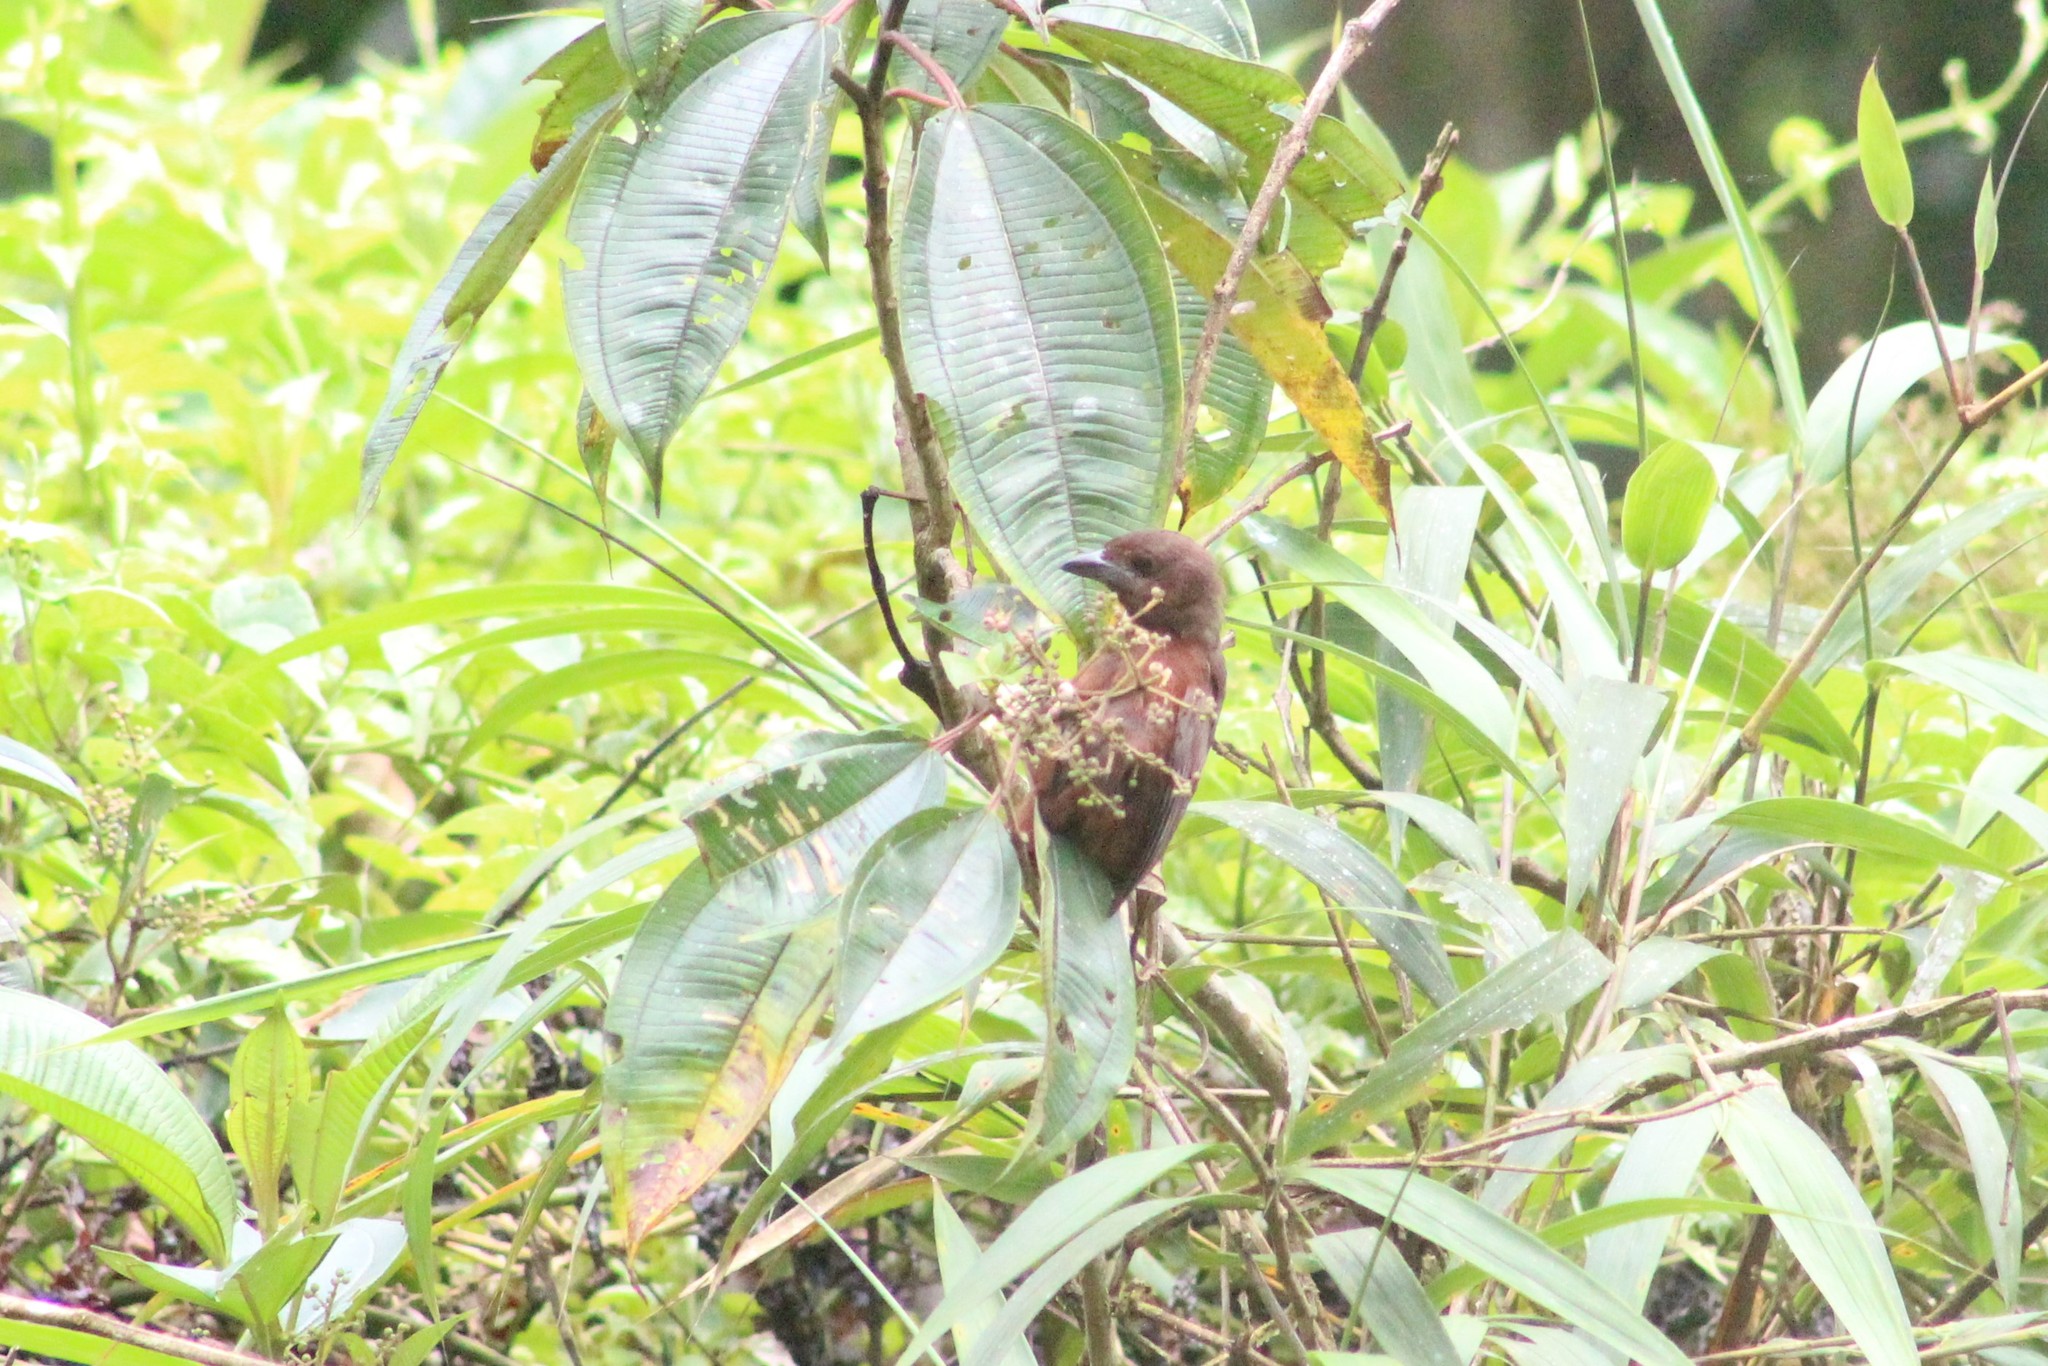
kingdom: Animalia
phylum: Chordata
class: Aves
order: Passeriformes
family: Thraupidae
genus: Ramphocelus
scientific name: Ramphocelus carbo
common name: Silver-beaked tanager
